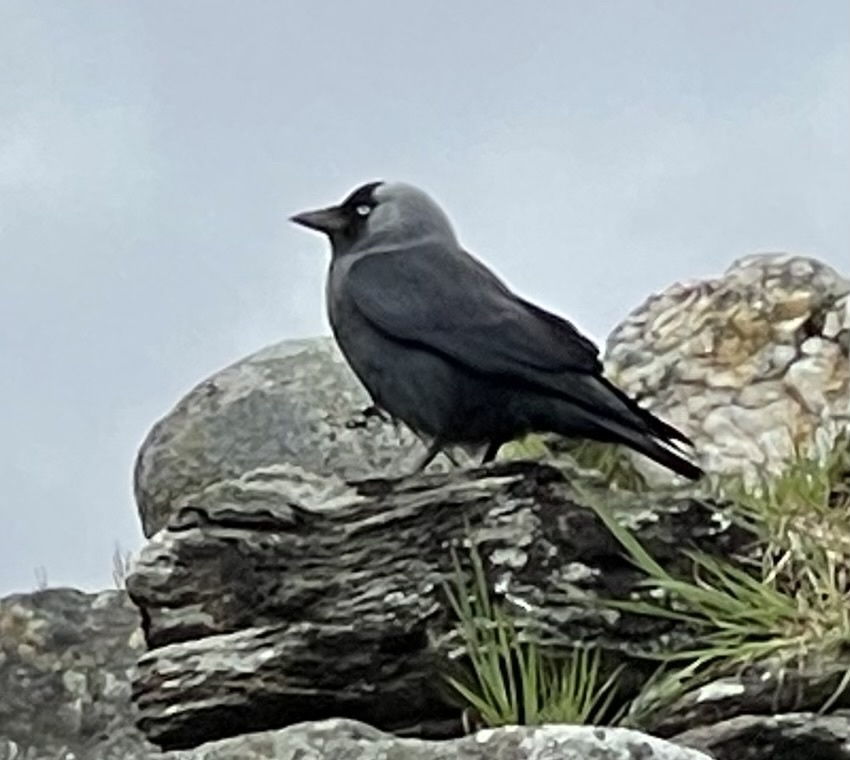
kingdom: Animalia
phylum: Chordata
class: Aves
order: Passeriformes
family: Corvidae
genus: Coloeus
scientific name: Coloeus monedula
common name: Western jackdaw
